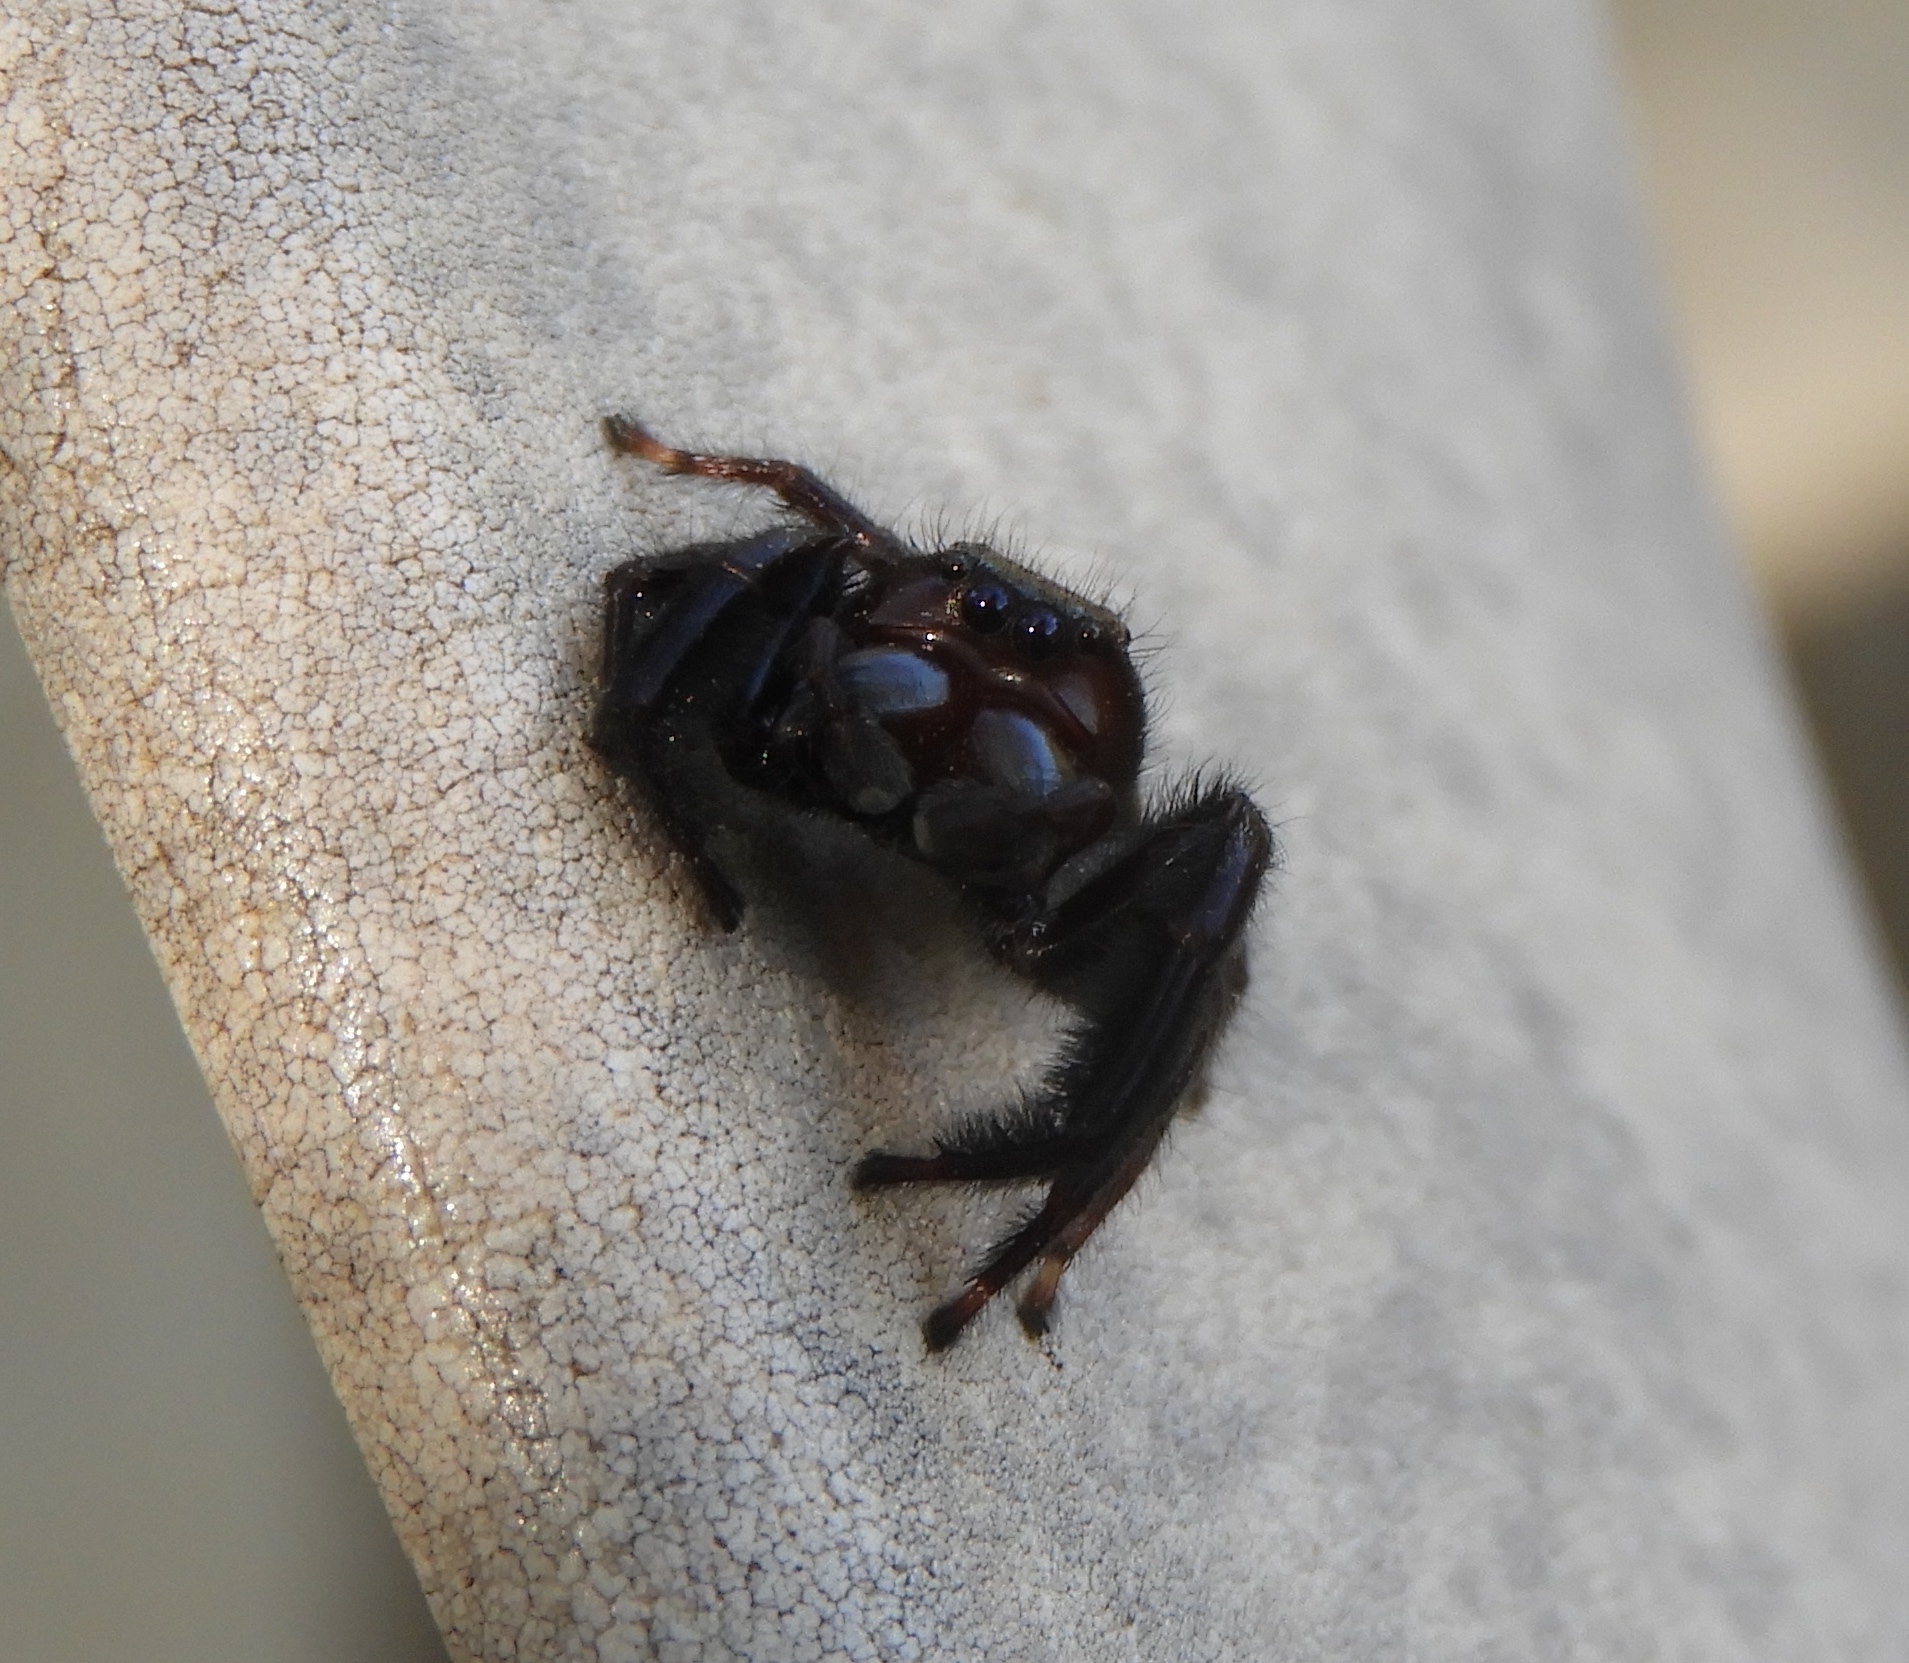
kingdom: Animalia
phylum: Arthropoda
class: Arachnida
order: Araneae
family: Salticidae
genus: Paraphidippus
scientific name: Paraphidippus fartilis
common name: Jumping spiders
